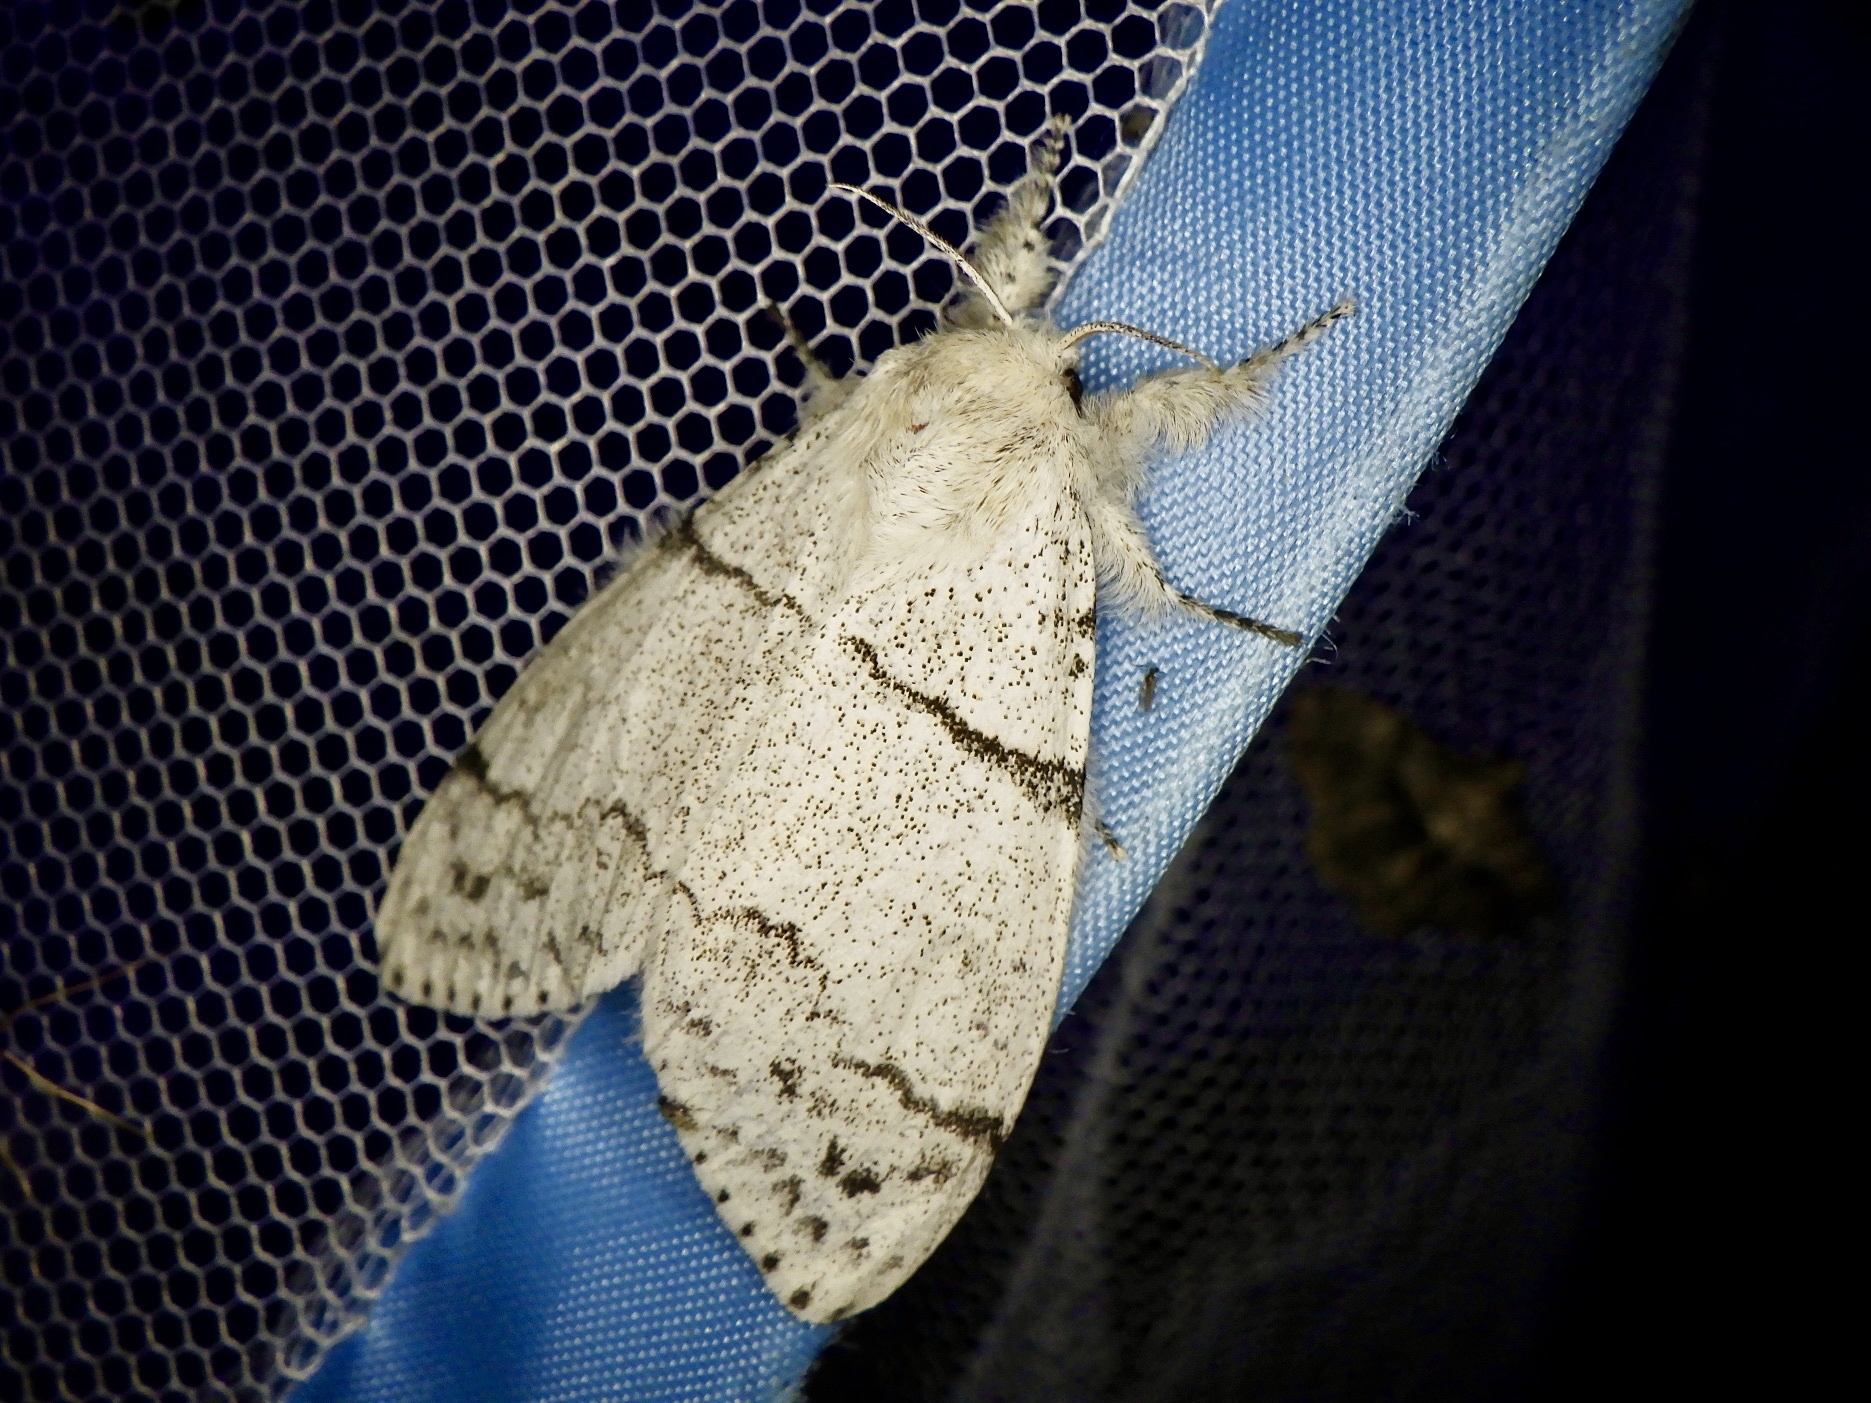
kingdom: Animalia
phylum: Arthropoda
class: Insecta
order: Lepidoptera
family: Erebidae
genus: Calliteara
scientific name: Calliteara
